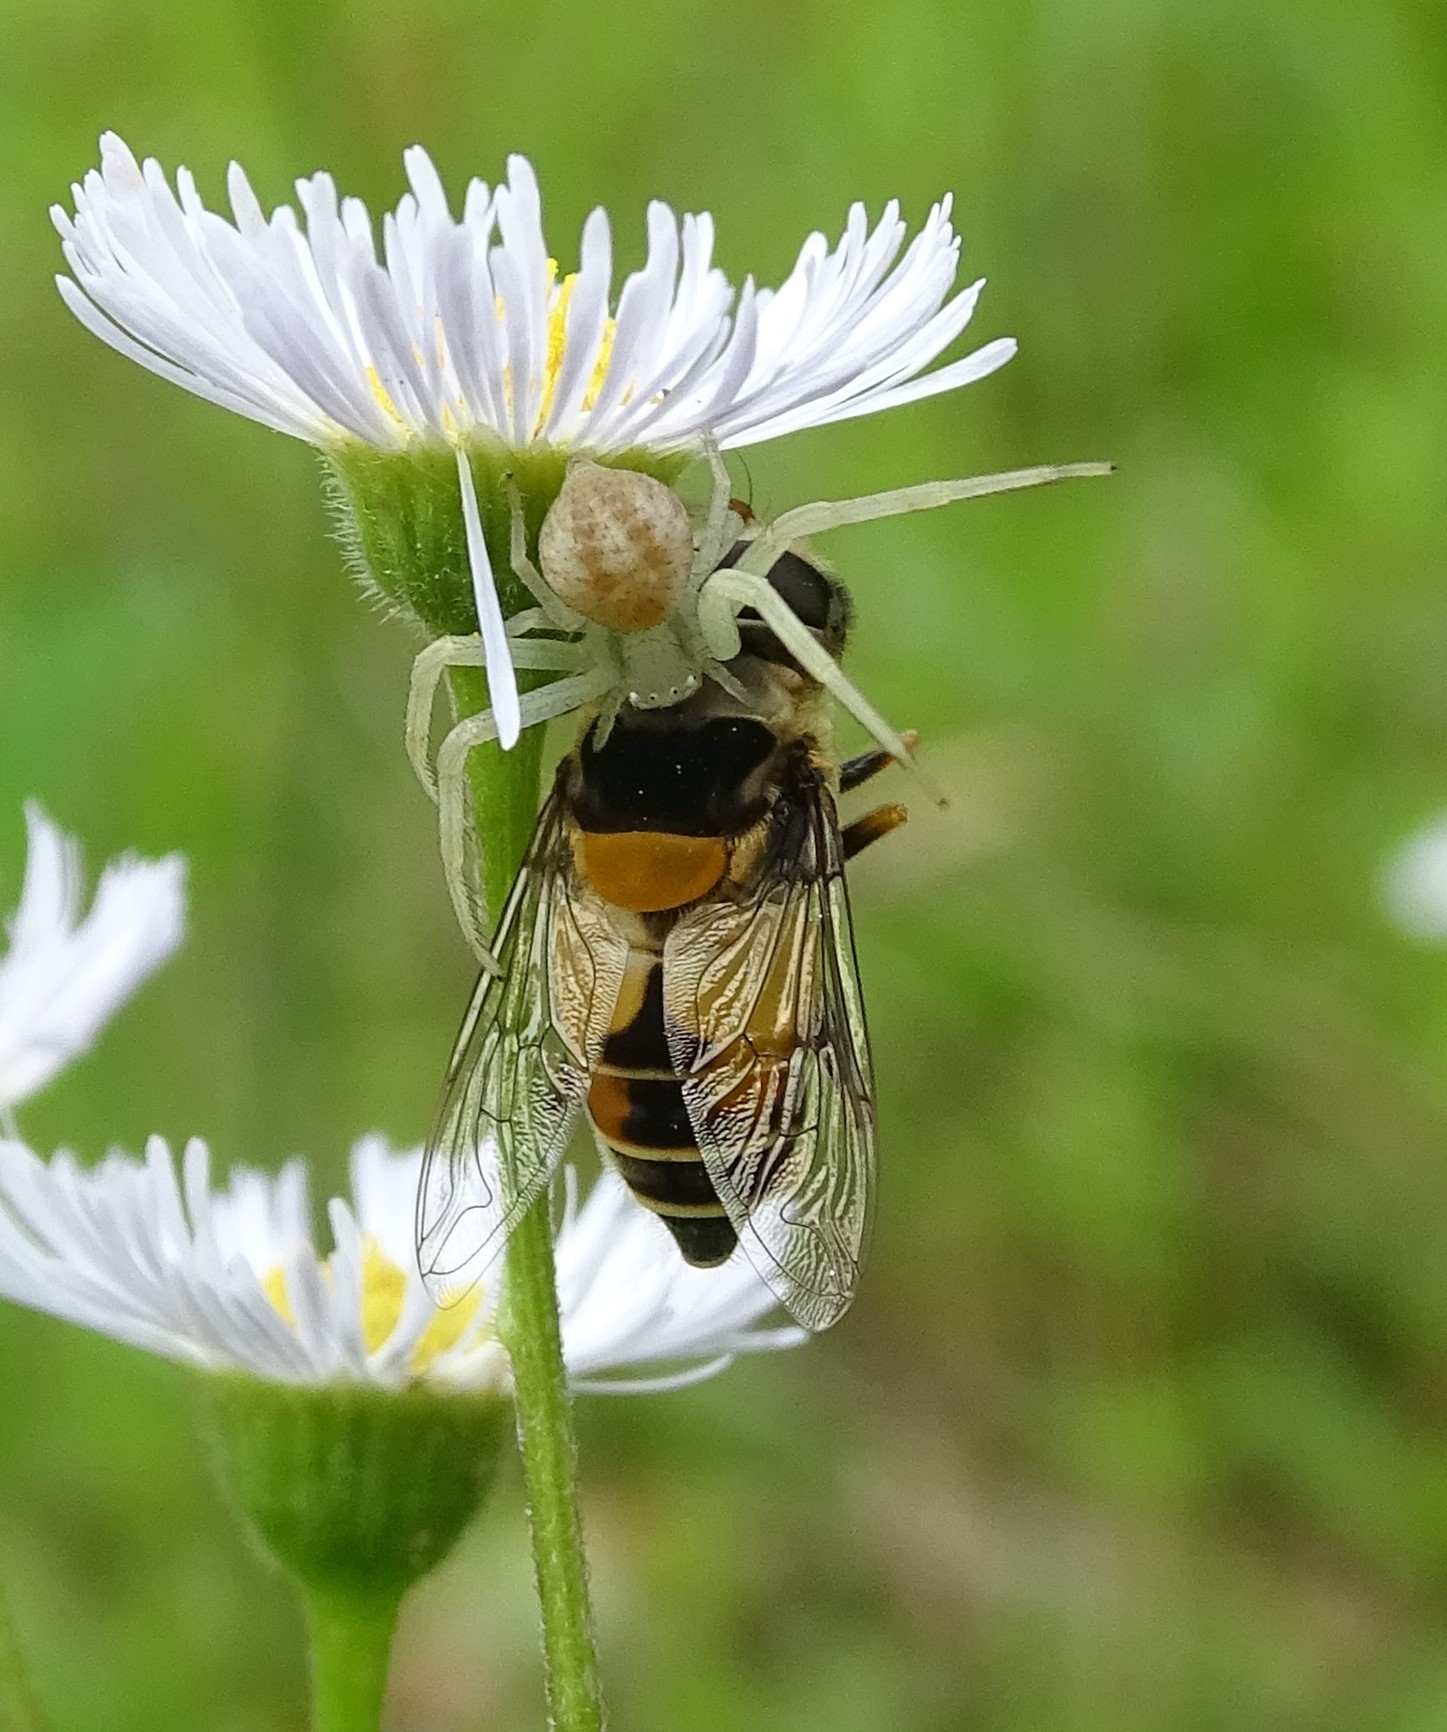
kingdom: Animalia
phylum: Arthropoda
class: Insecta
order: Diptera
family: Syrphidae
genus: Palpada
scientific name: Palpada pusilla
